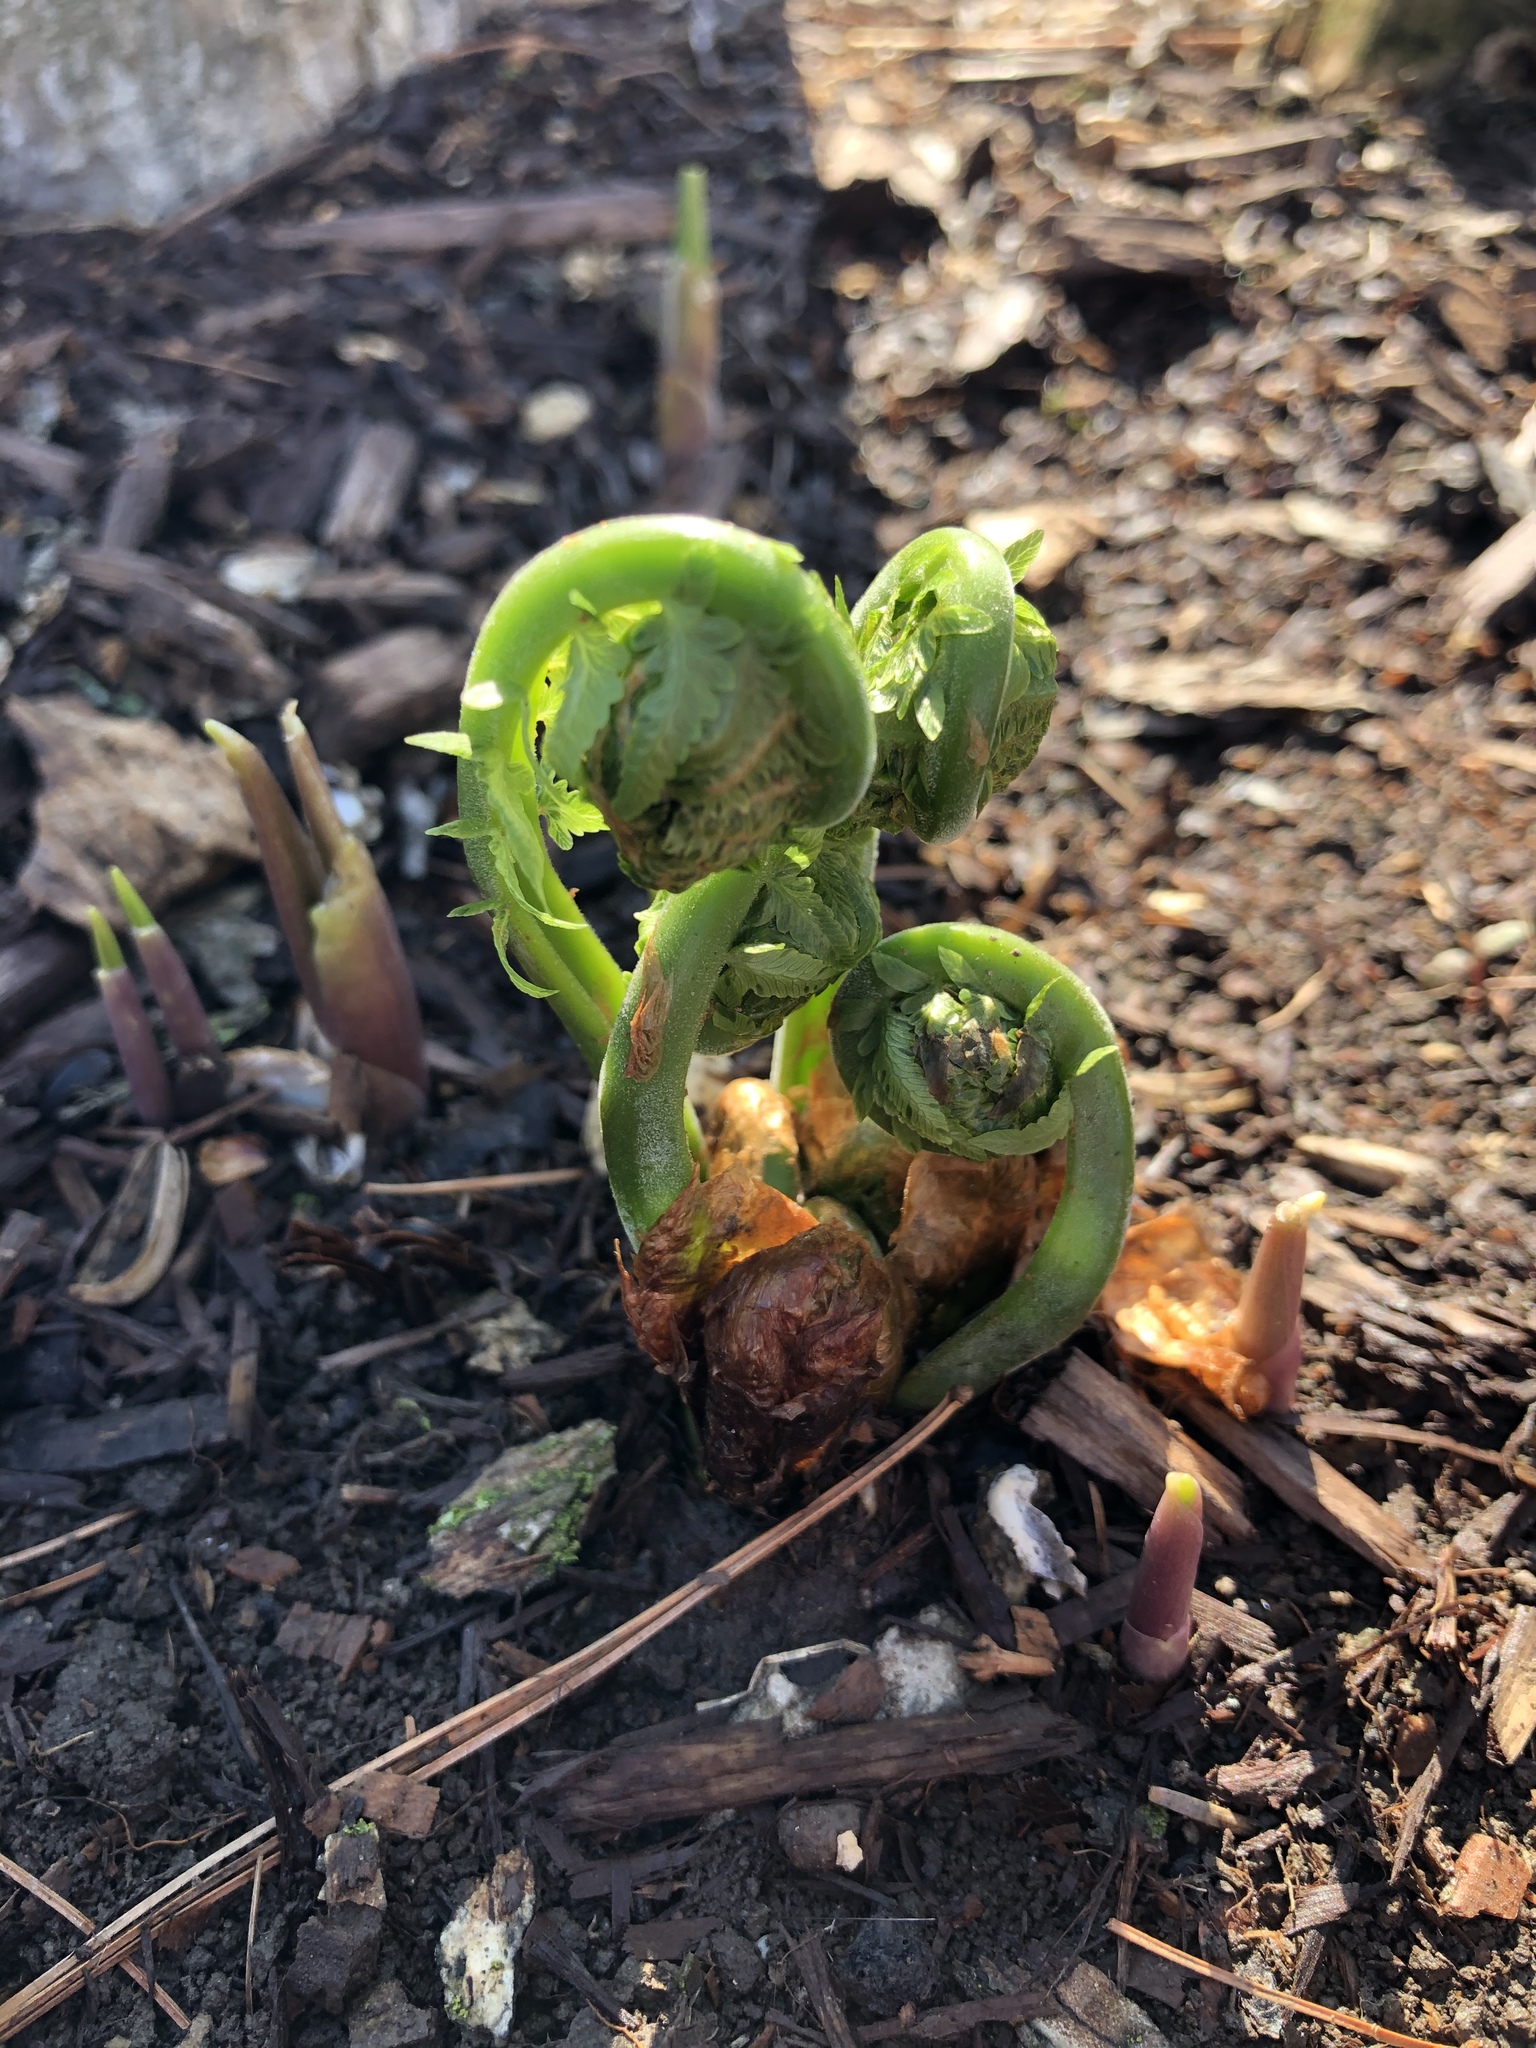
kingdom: Plantae
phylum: Tracheophyta
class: Polypodiopsida
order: Polypodiales
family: Onocleaceae
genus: Matteuccia
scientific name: Matteuccia struthiopteris
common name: Ostrich fern
